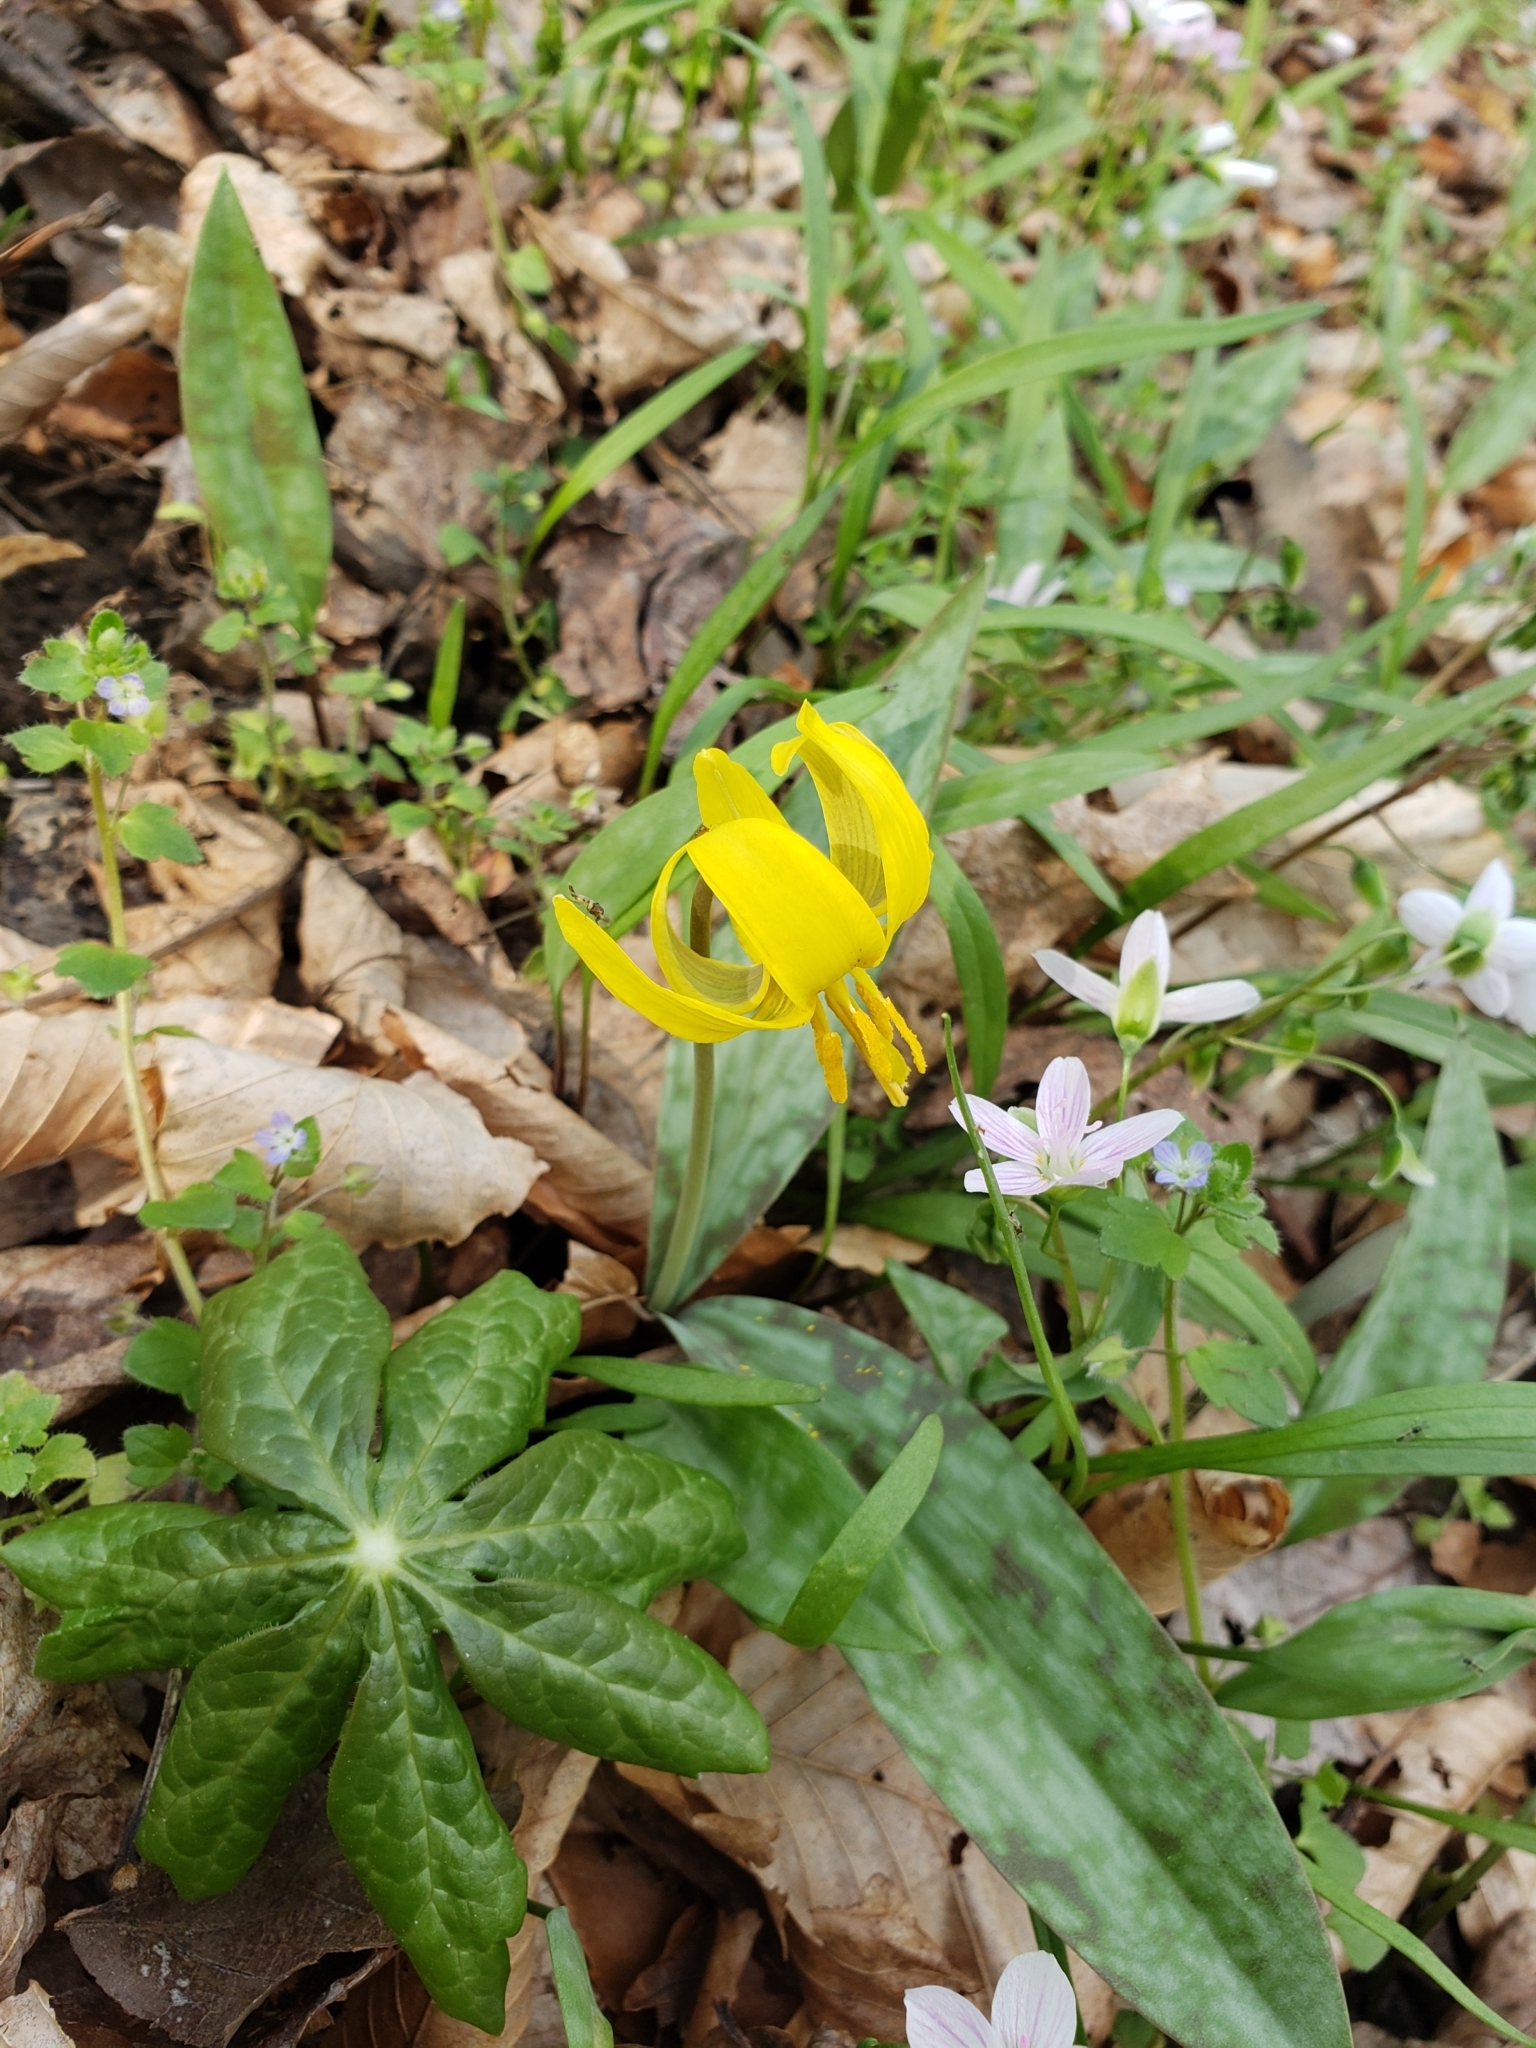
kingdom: Plantae
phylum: Tracheophyta
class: Liliopsida
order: Liliales
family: Liliaceae
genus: Erythronium
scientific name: Erythronium americanum
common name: Yellow adder's-tongue
